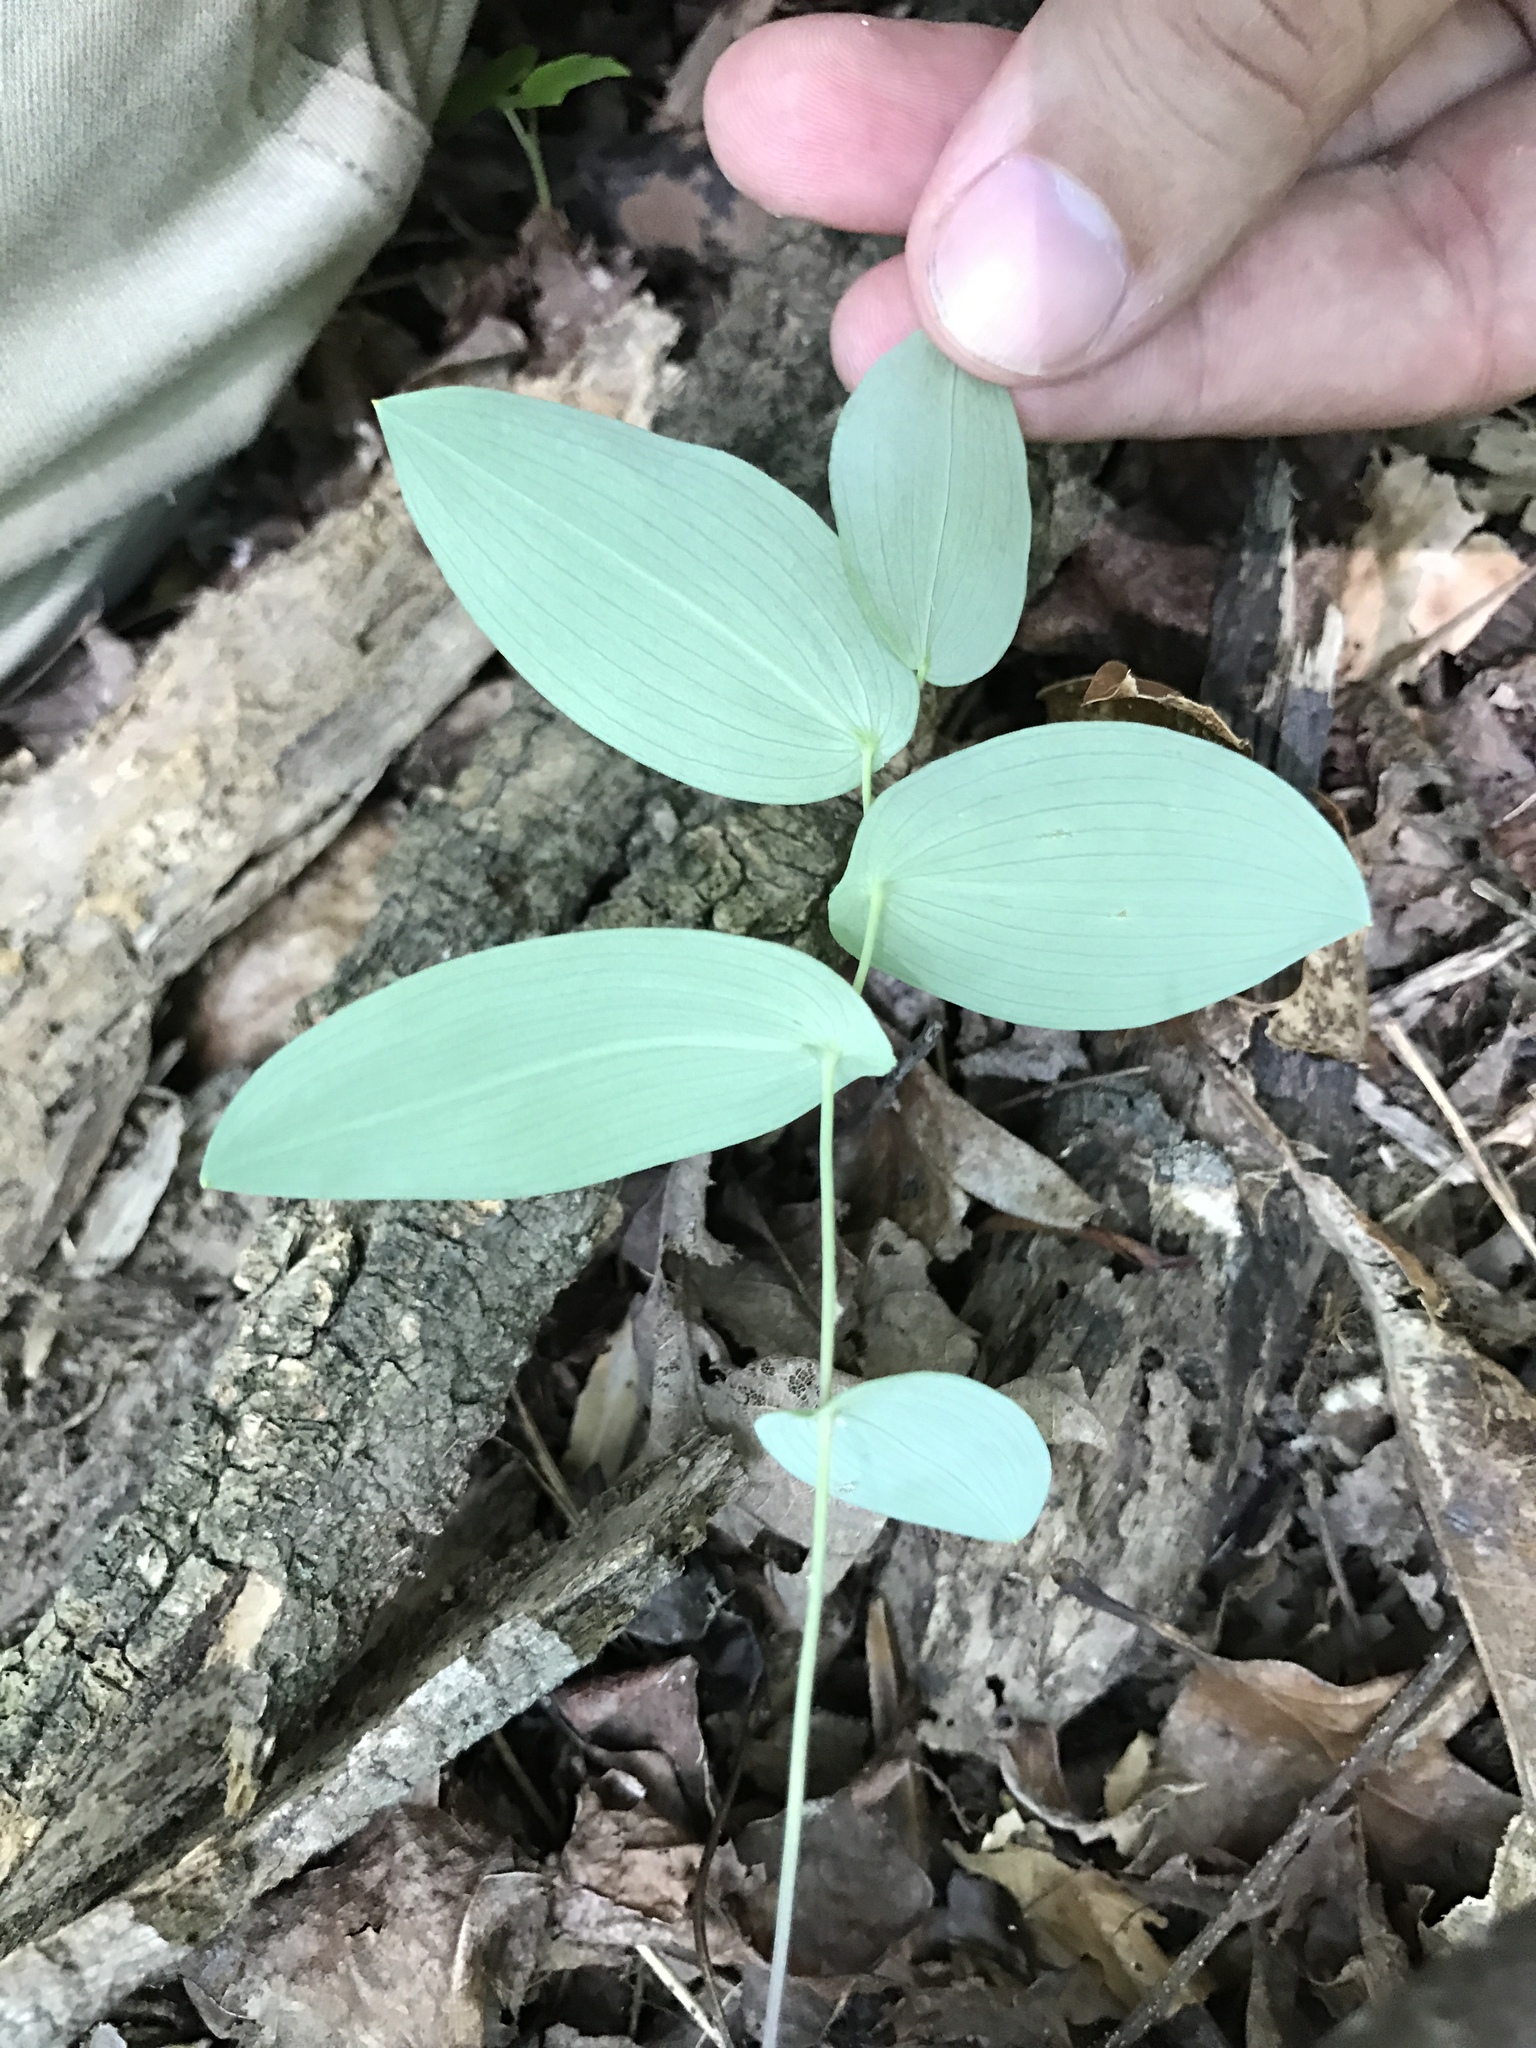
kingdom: Plantae
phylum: Tracheophyta
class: Liliopsida
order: Liliales
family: Colchicaceae
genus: Uvularia
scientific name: Uvularia perfoliata
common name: Perfoliate bellwort
